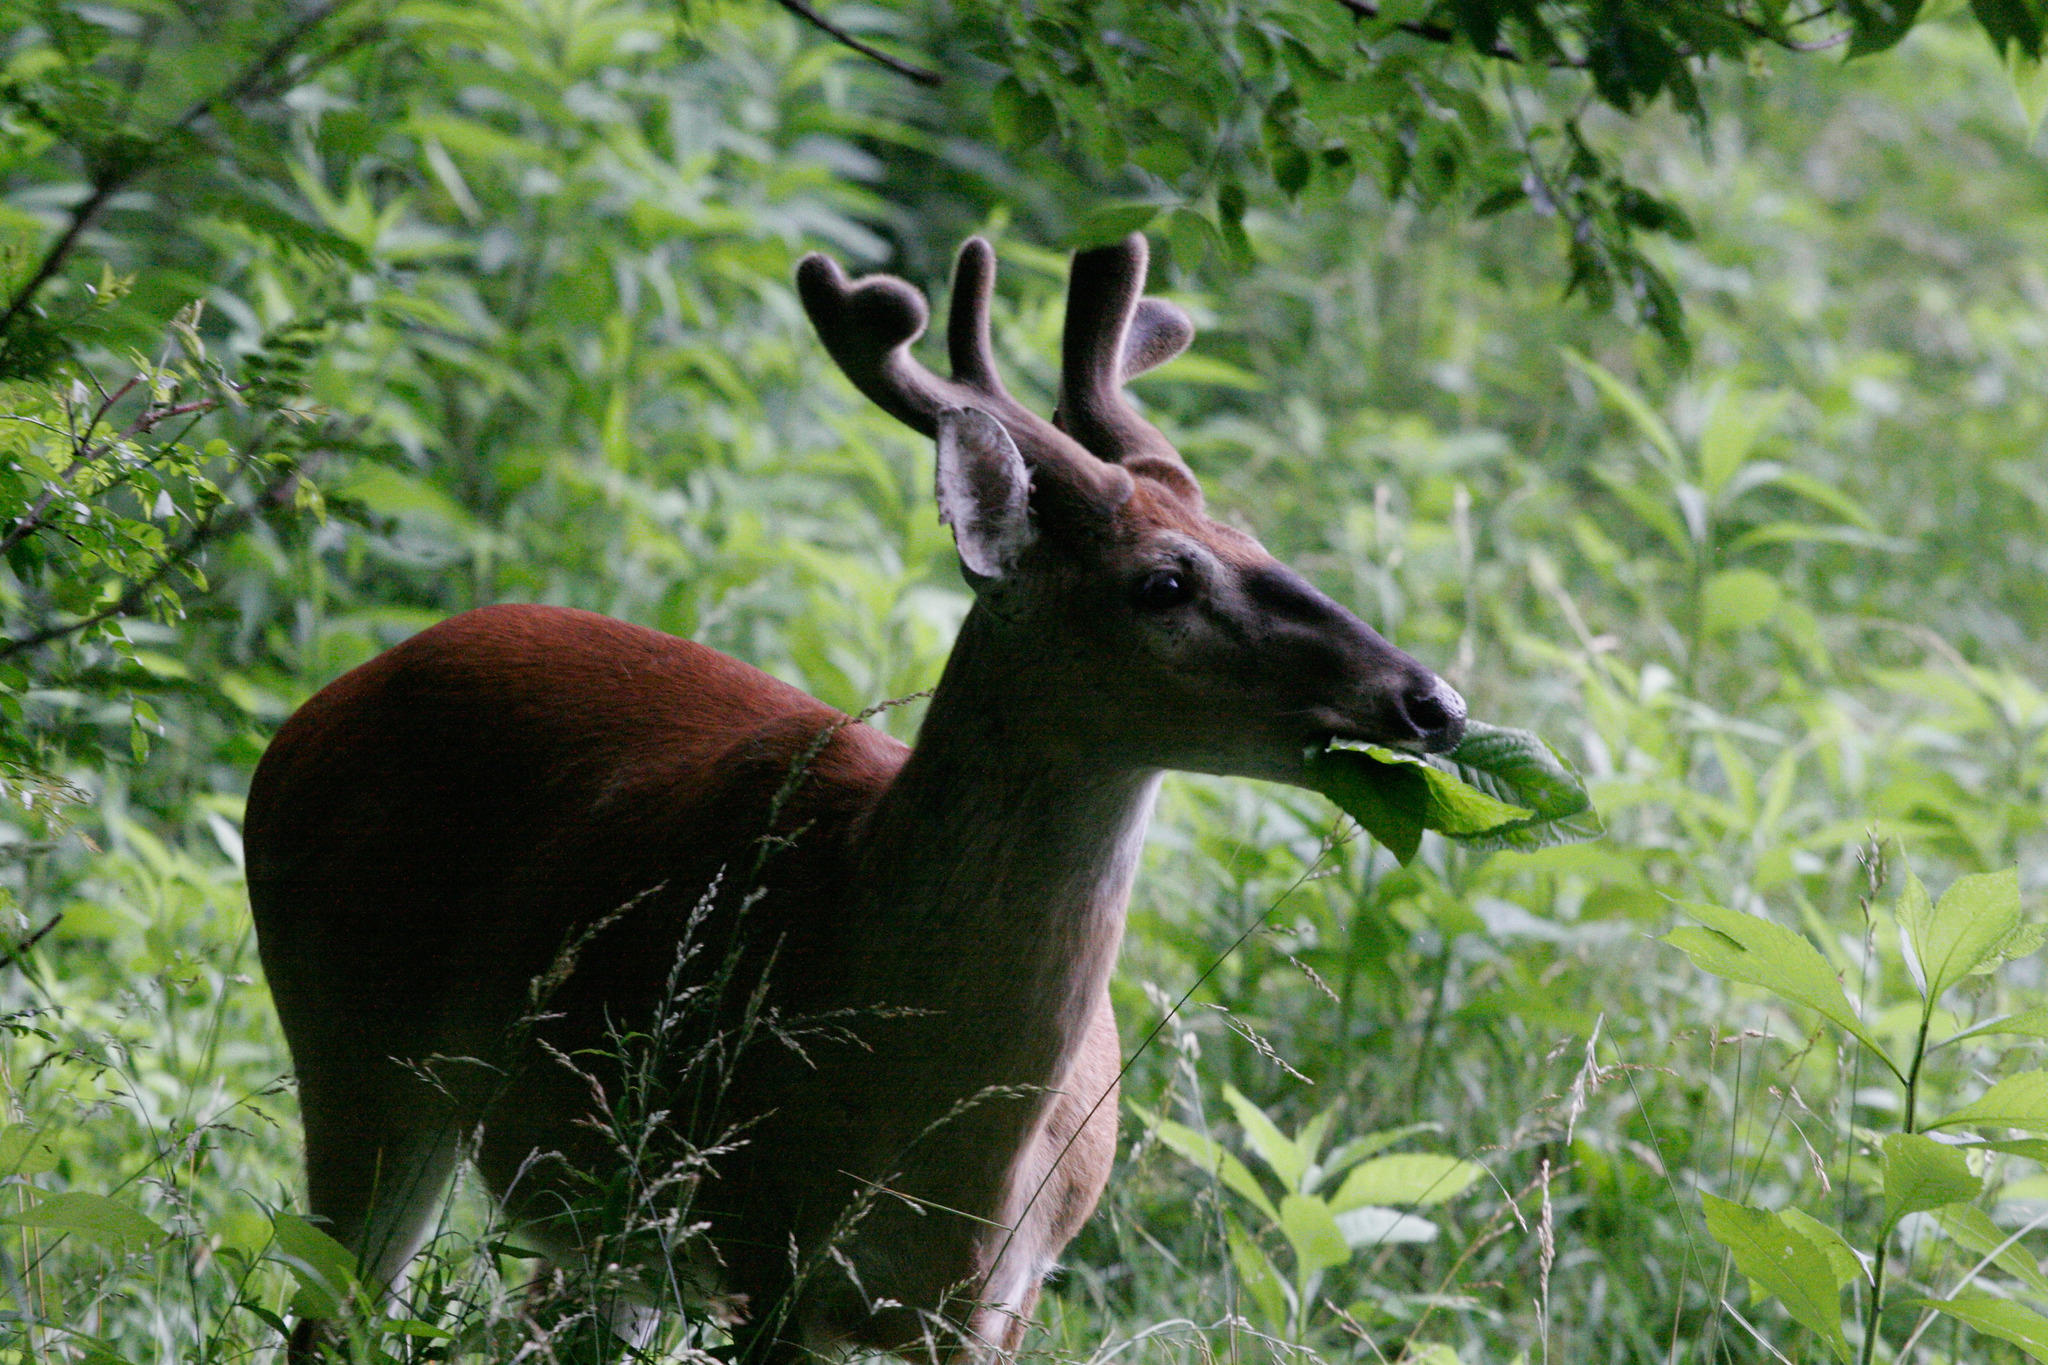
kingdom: Animalia
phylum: Chordata
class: Mammalia
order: Artiodactyla
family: Cervidae
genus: Odocoileus
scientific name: Odocoileus virginianus
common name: White-tailed deer
